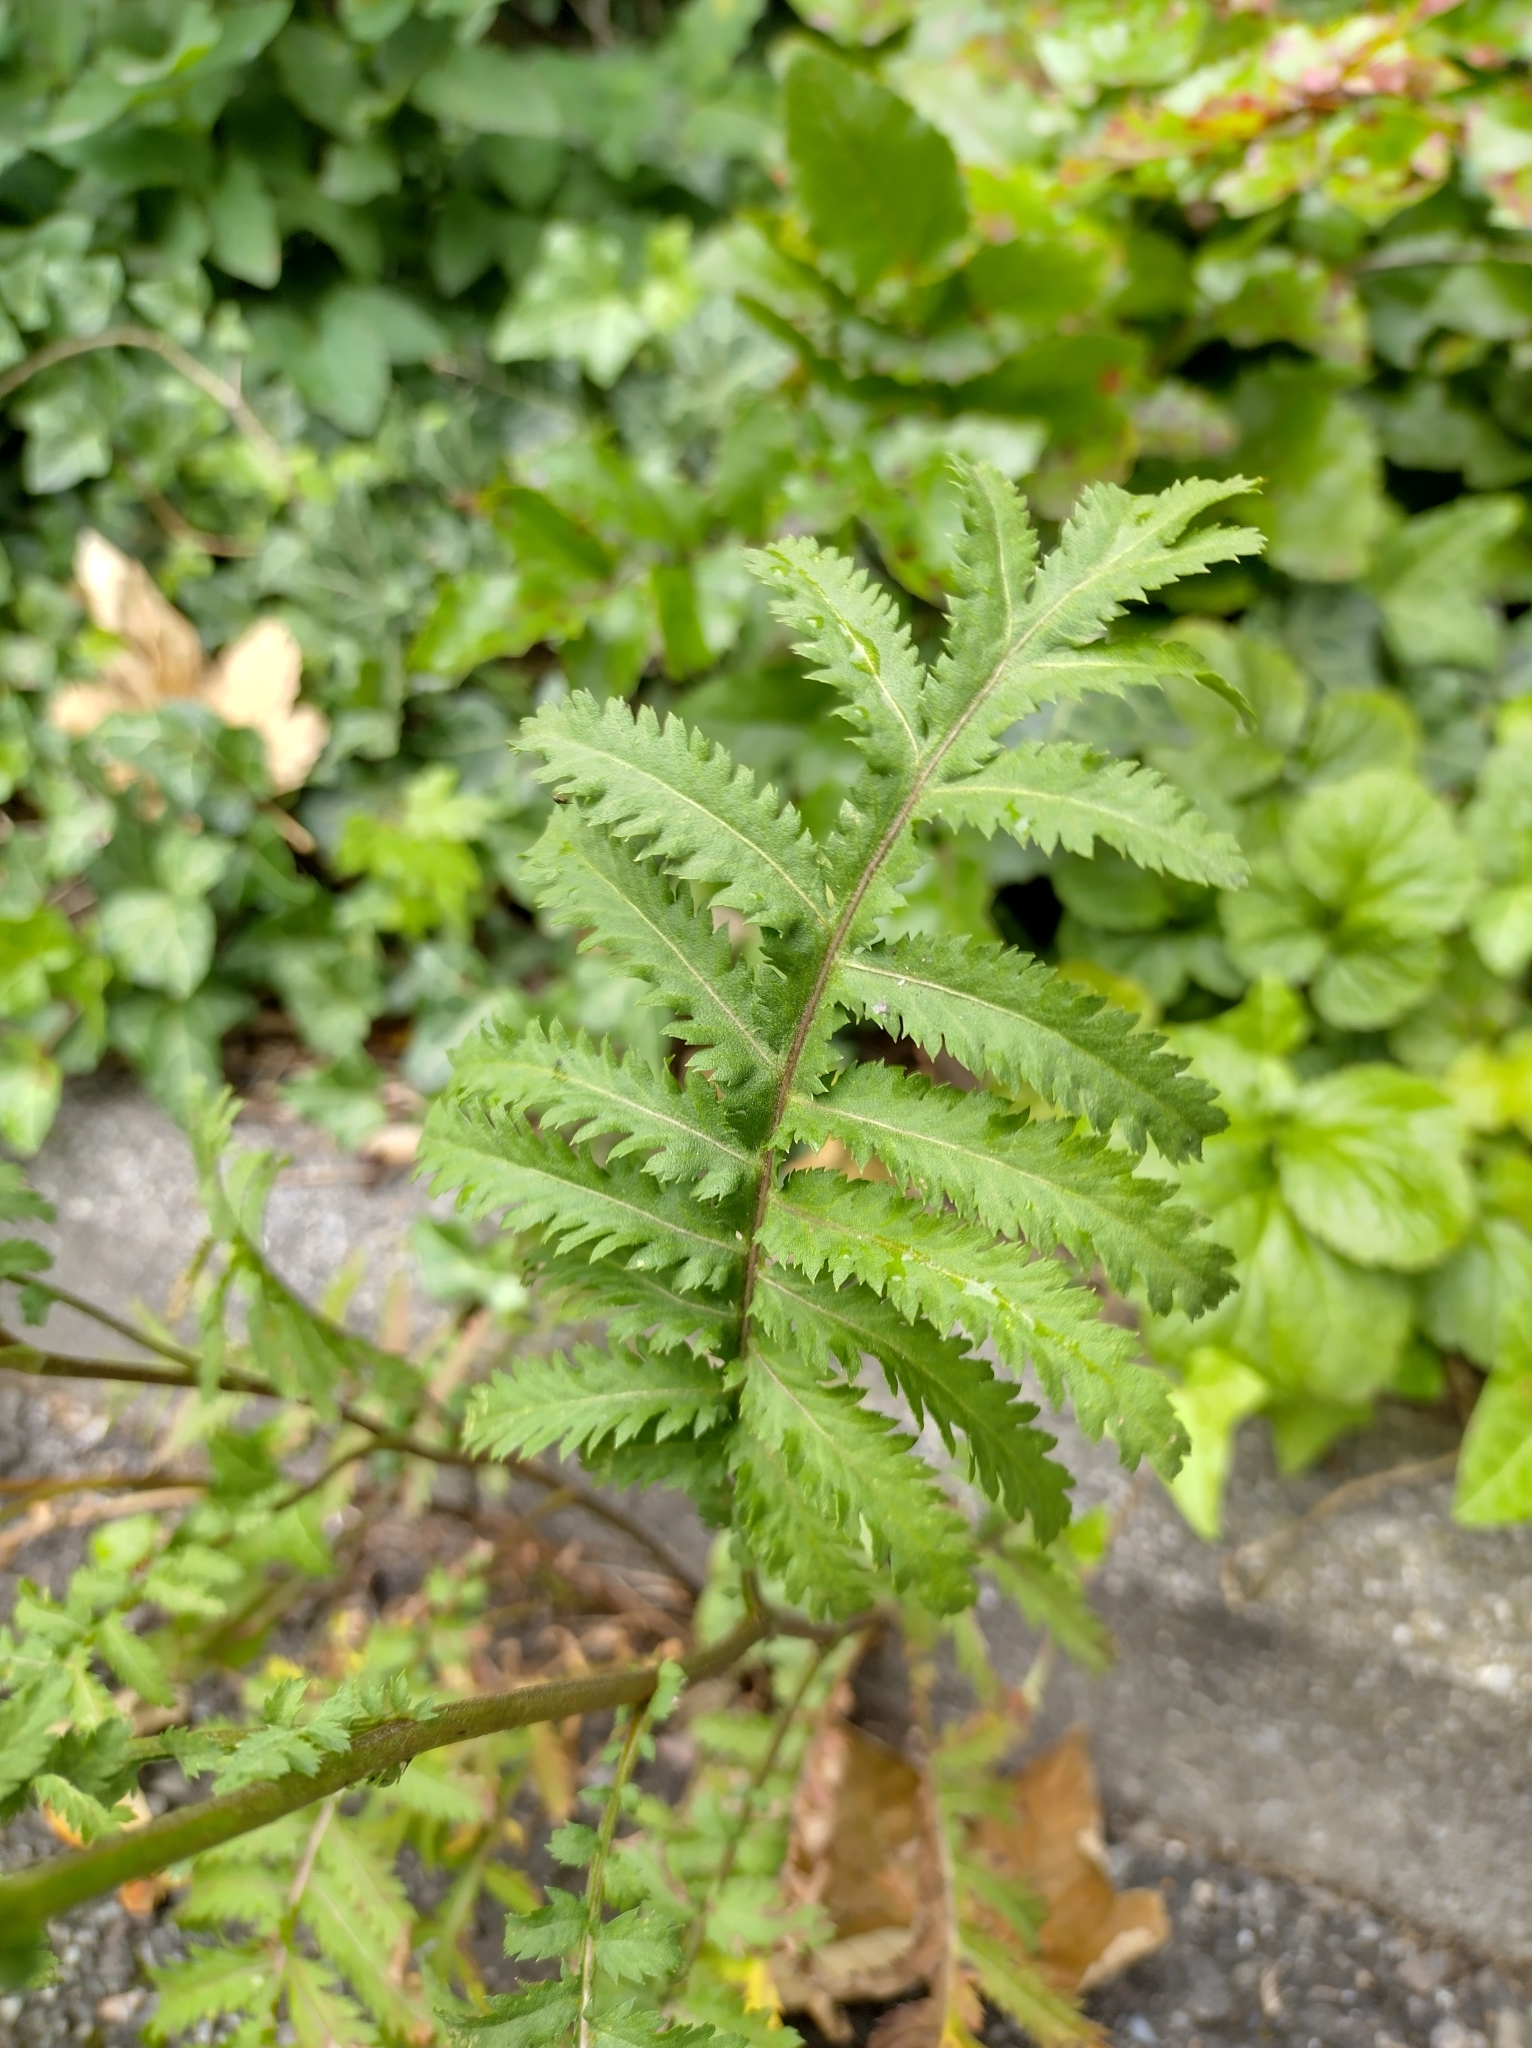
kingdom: Plantae
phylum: Tracheophyta
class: Magnoliopsida
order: Asterales
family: Asteraceae
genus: Tanacetum
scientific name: Tanacetum vulgare
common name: Common tansy
